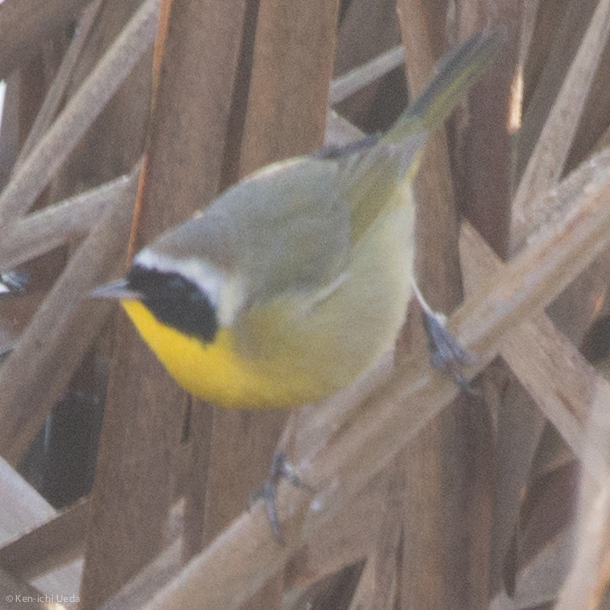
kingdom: Animalia
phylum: Chordata
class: Aves
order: Passeriformes
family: Parulidae
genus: Geothlypis
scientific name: Geothlypis trichas
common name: Common yellowthroat
